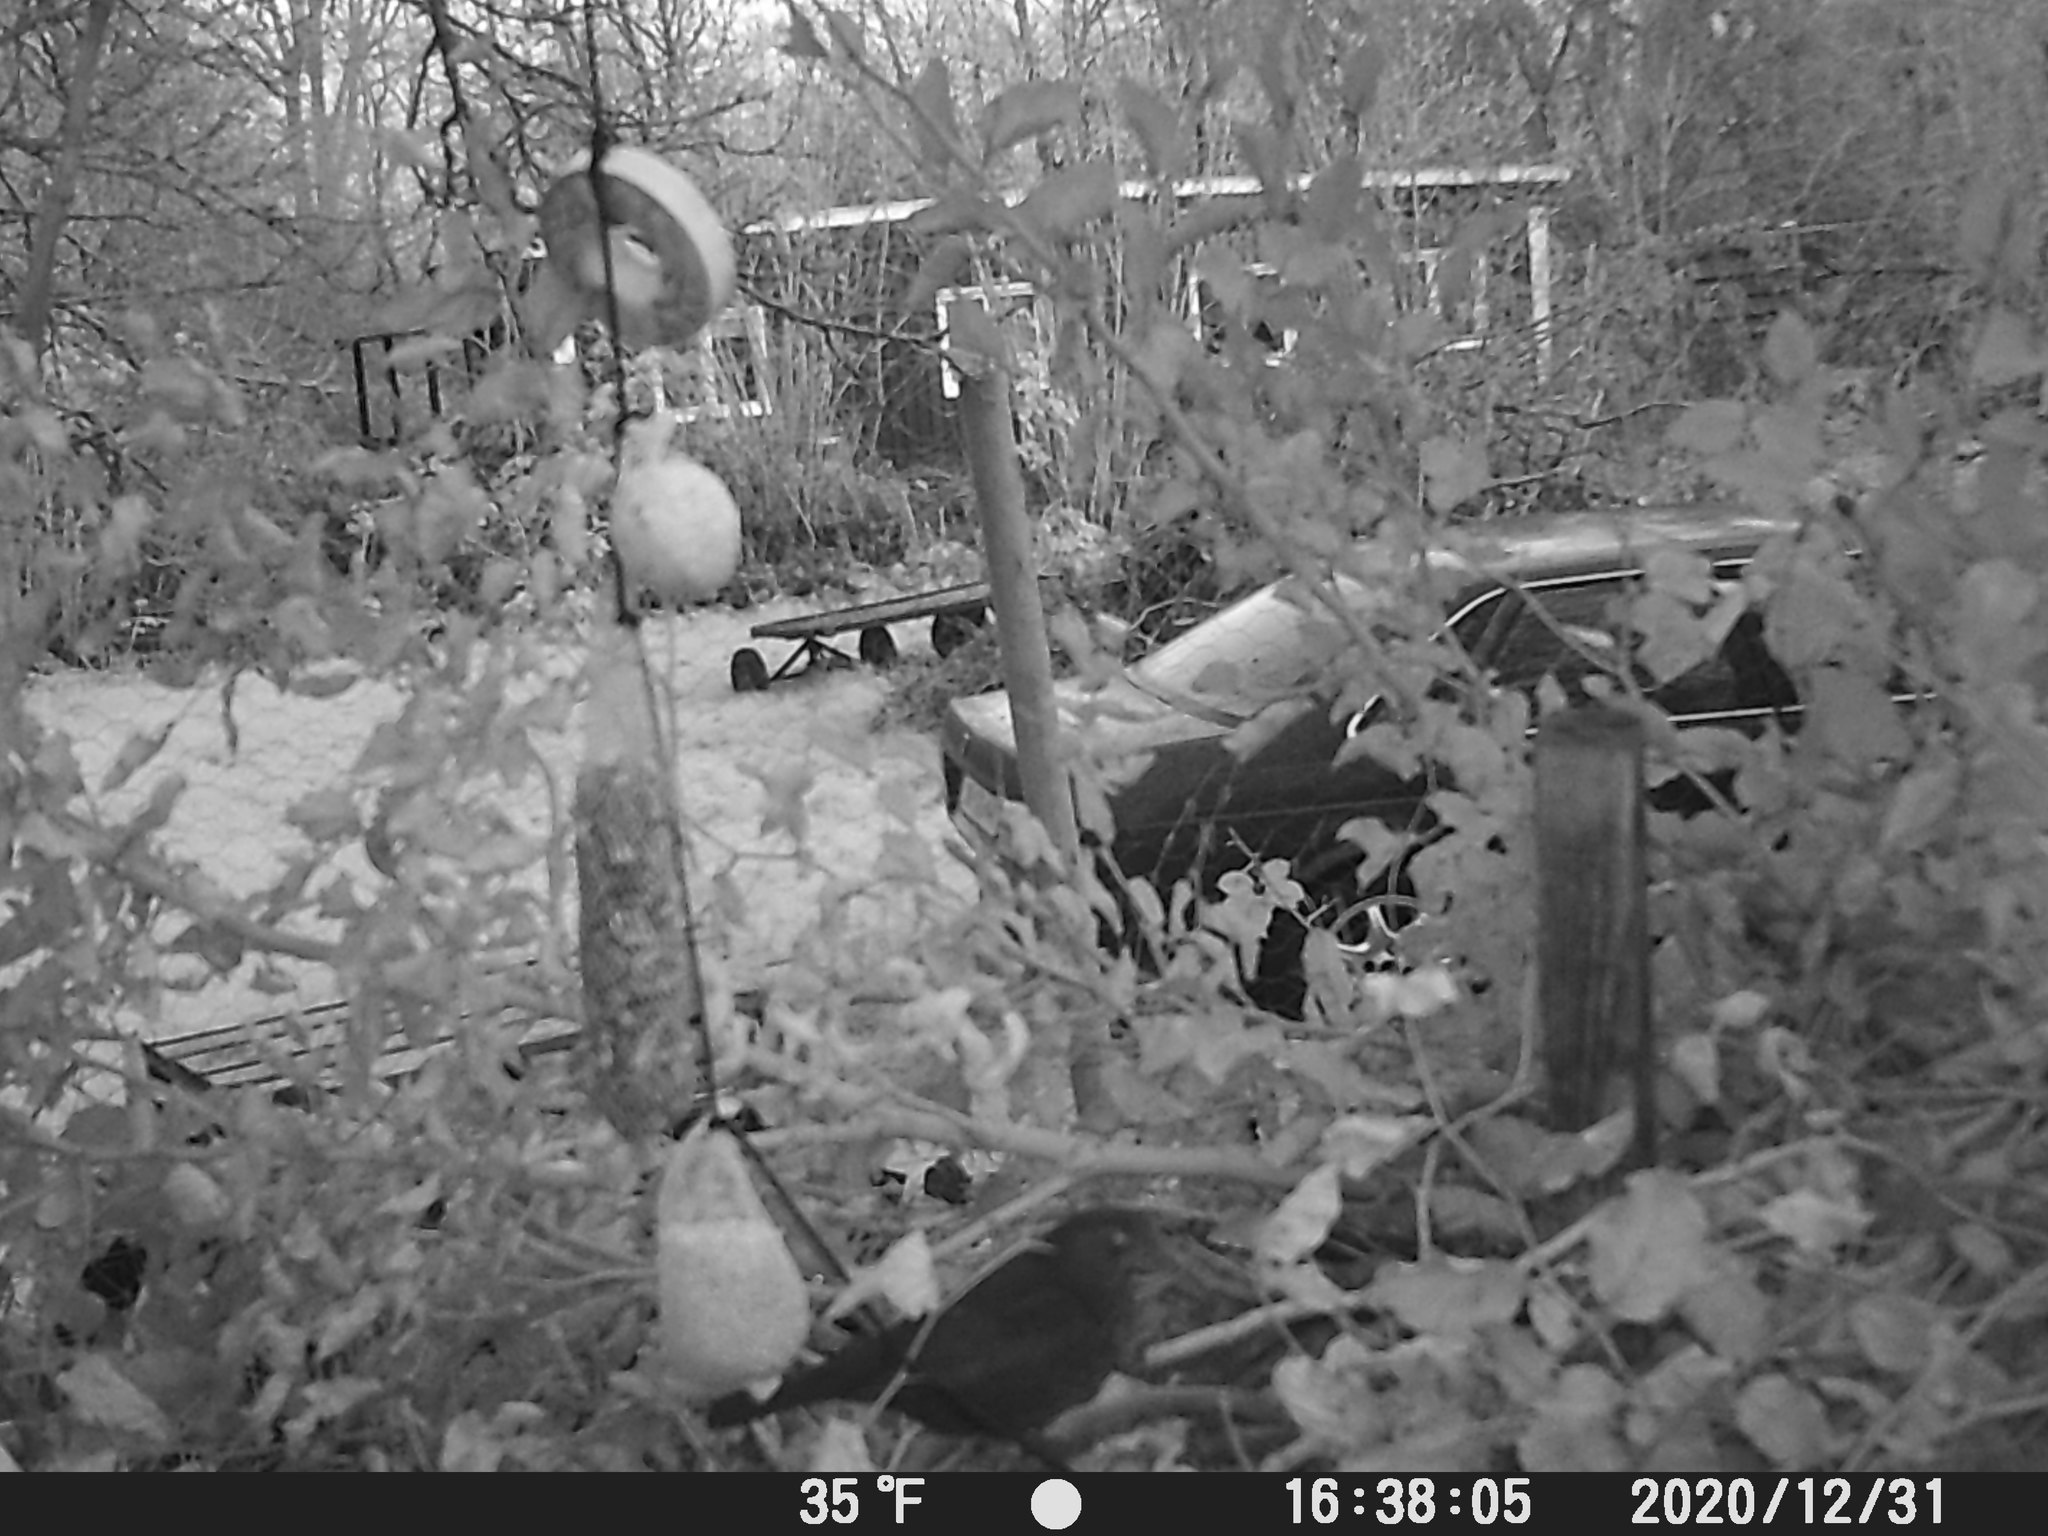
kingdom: Animalia
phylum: Chordata
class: Aves
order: Passeriformes
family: Turdidae
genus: Turdus
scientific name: Turdus merula
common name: Common blackbird
